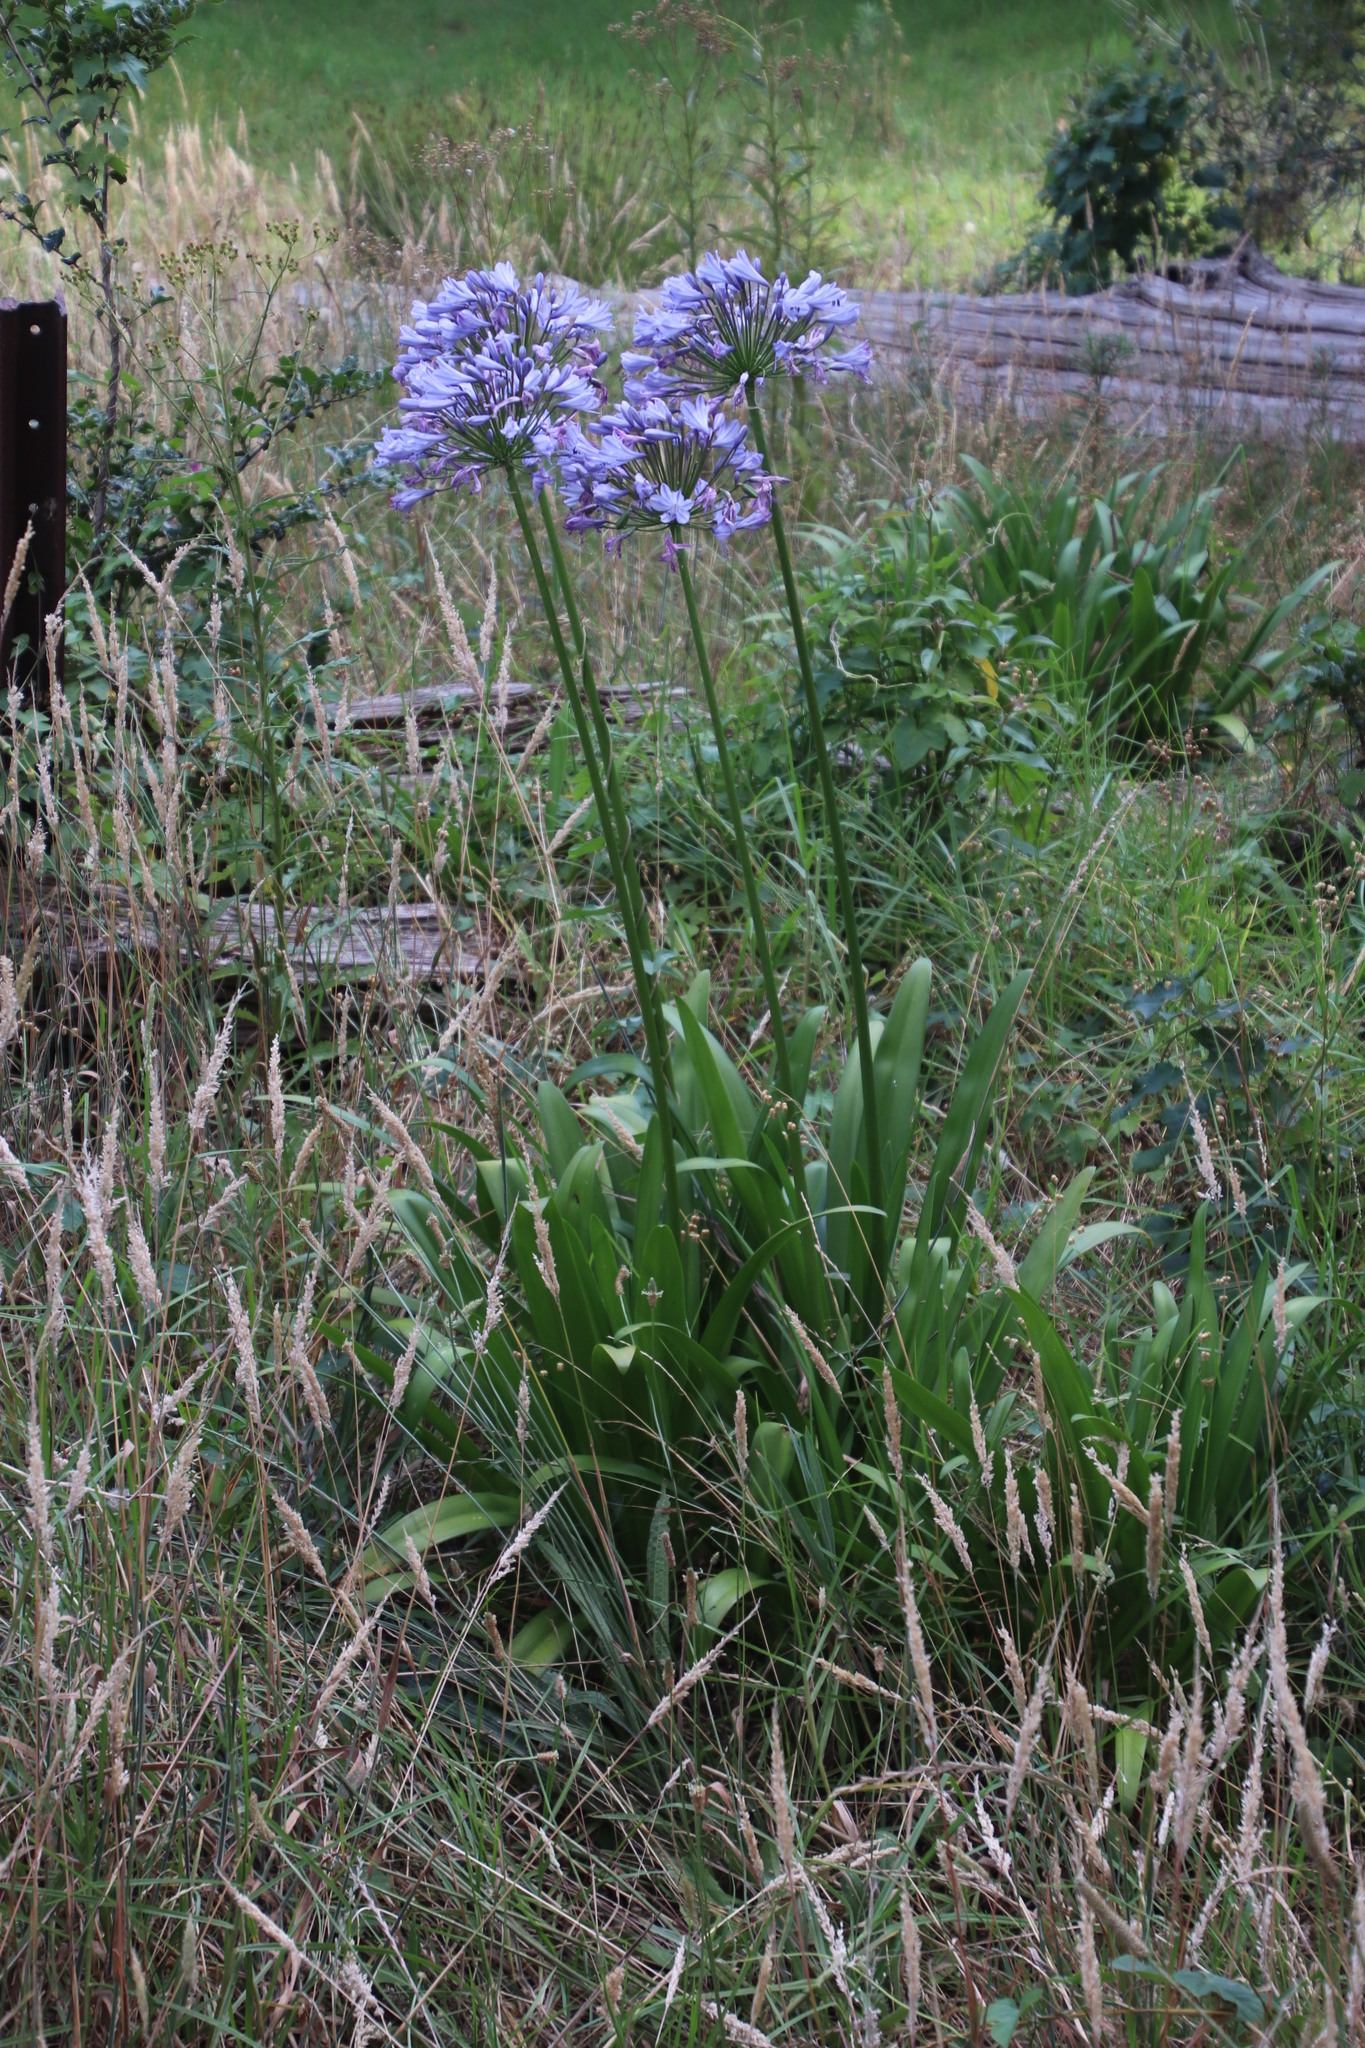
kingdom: Plantae
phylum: Tracheophyta
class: Liliopsida
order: Asparagales
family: Amaryllidaceae
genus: Agapanthus
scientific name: Agapanthus praecox
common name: African-lily
